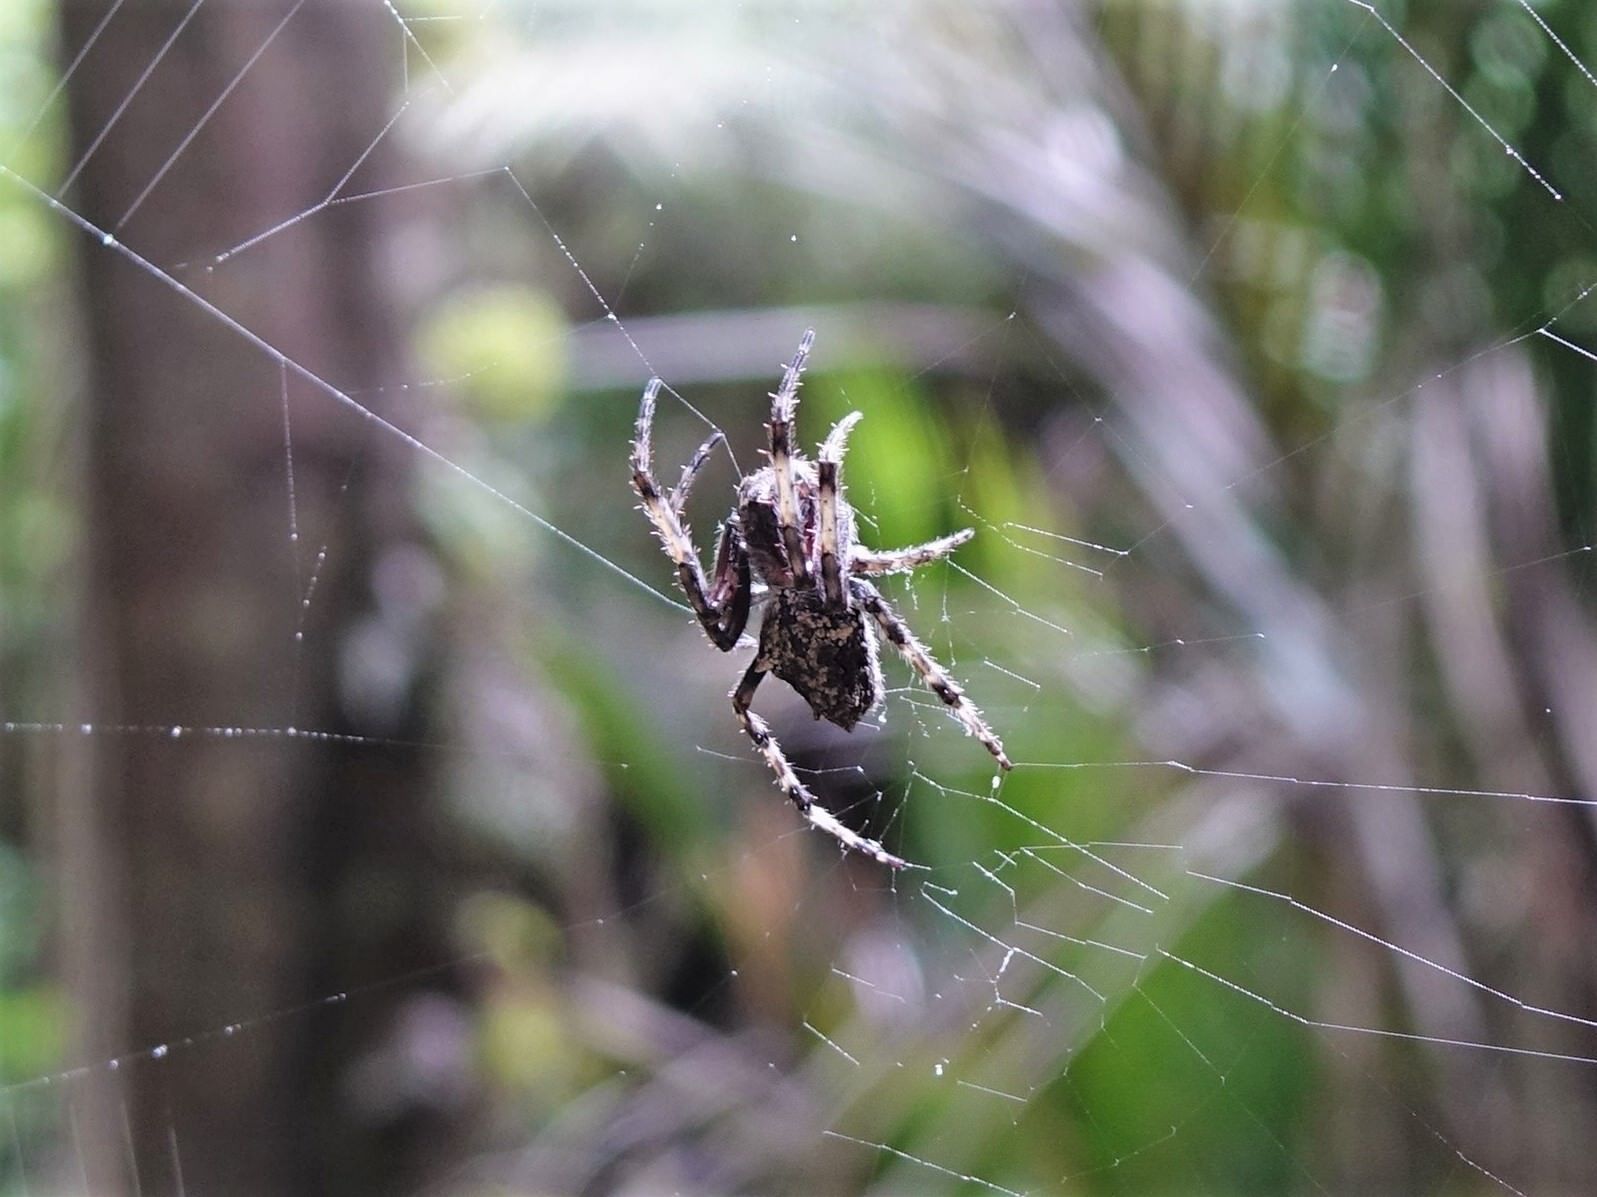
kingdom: Animalia
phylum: Arthropoda
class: Arachnida
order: Araneae
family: Araneidae
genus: Eriophora
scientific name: Eriophora pustulosa
